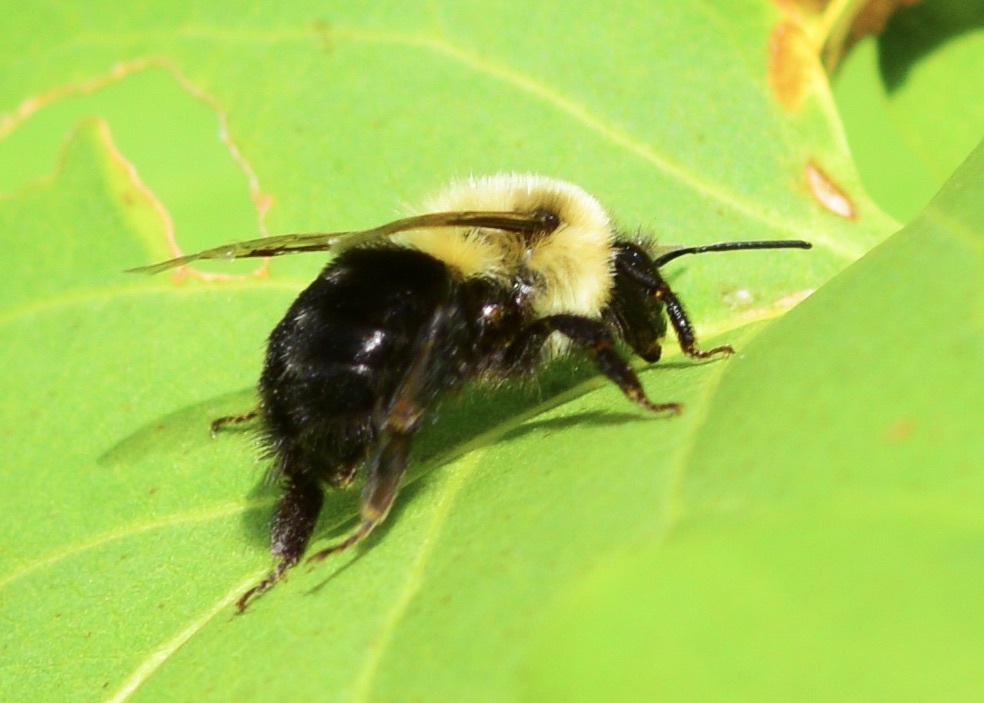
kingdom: Animalia
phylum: Arthropoda
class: Insecta
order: Hymenoptera
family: Apidae
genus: Bombus
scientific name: Bombus impatiens
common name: Common eastern bumble bee
